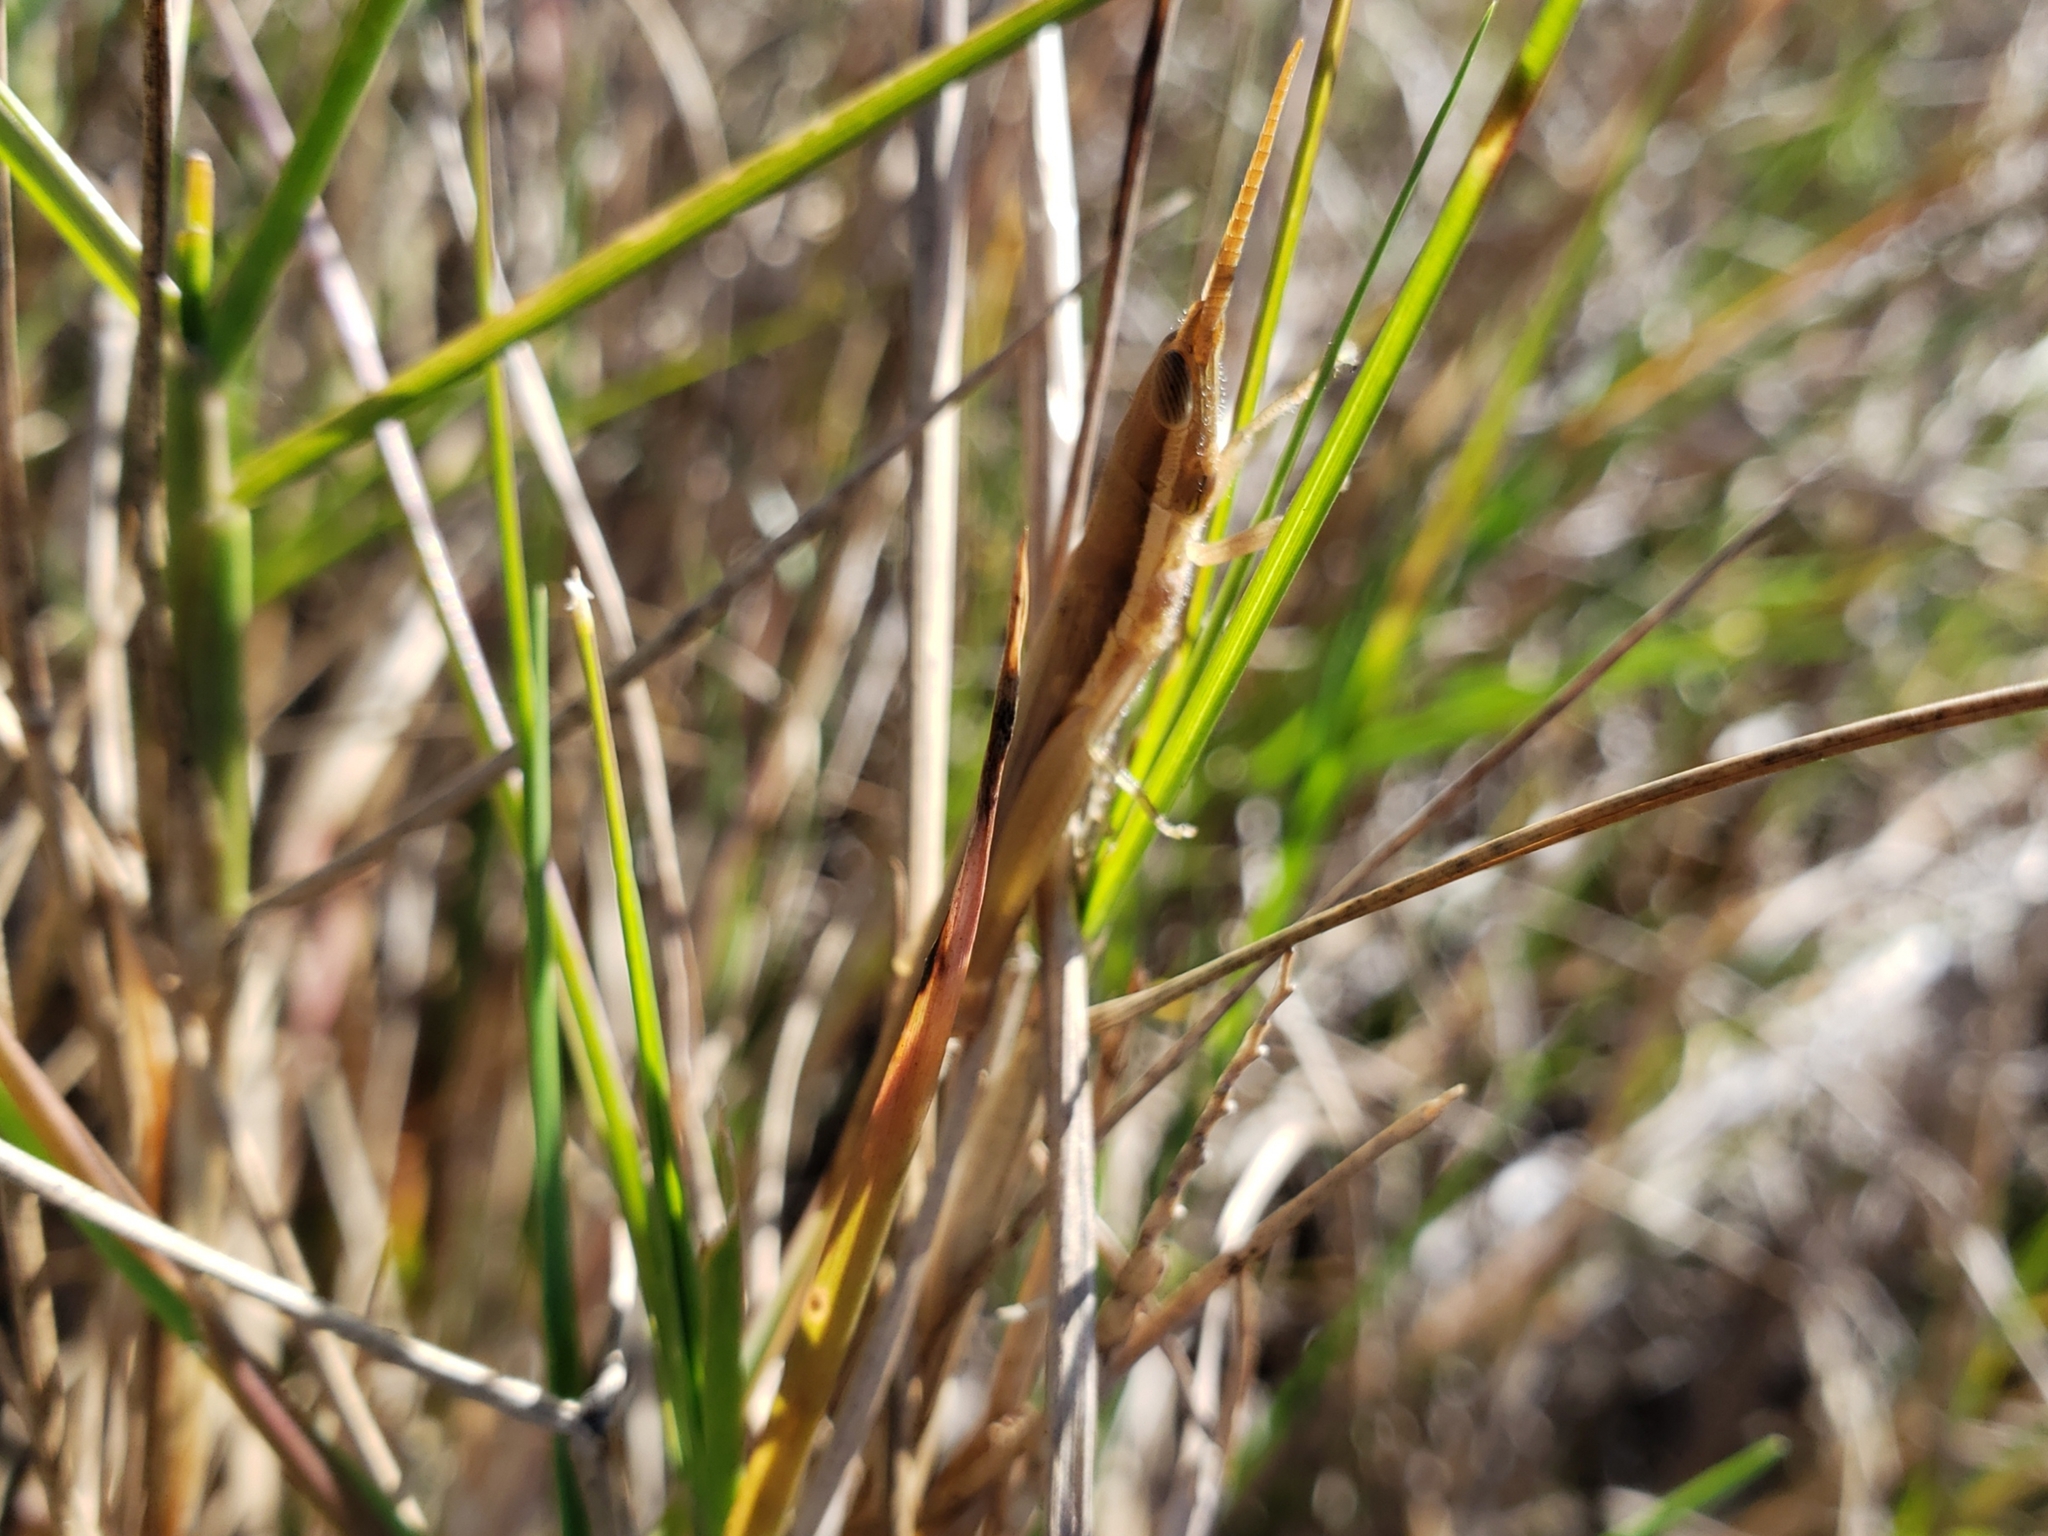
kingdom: Animalia
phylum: Arthropoda
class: Insecta
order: Orthoptera
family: Acrididae
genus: Leptysma
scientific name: Leptysma marginicollis
